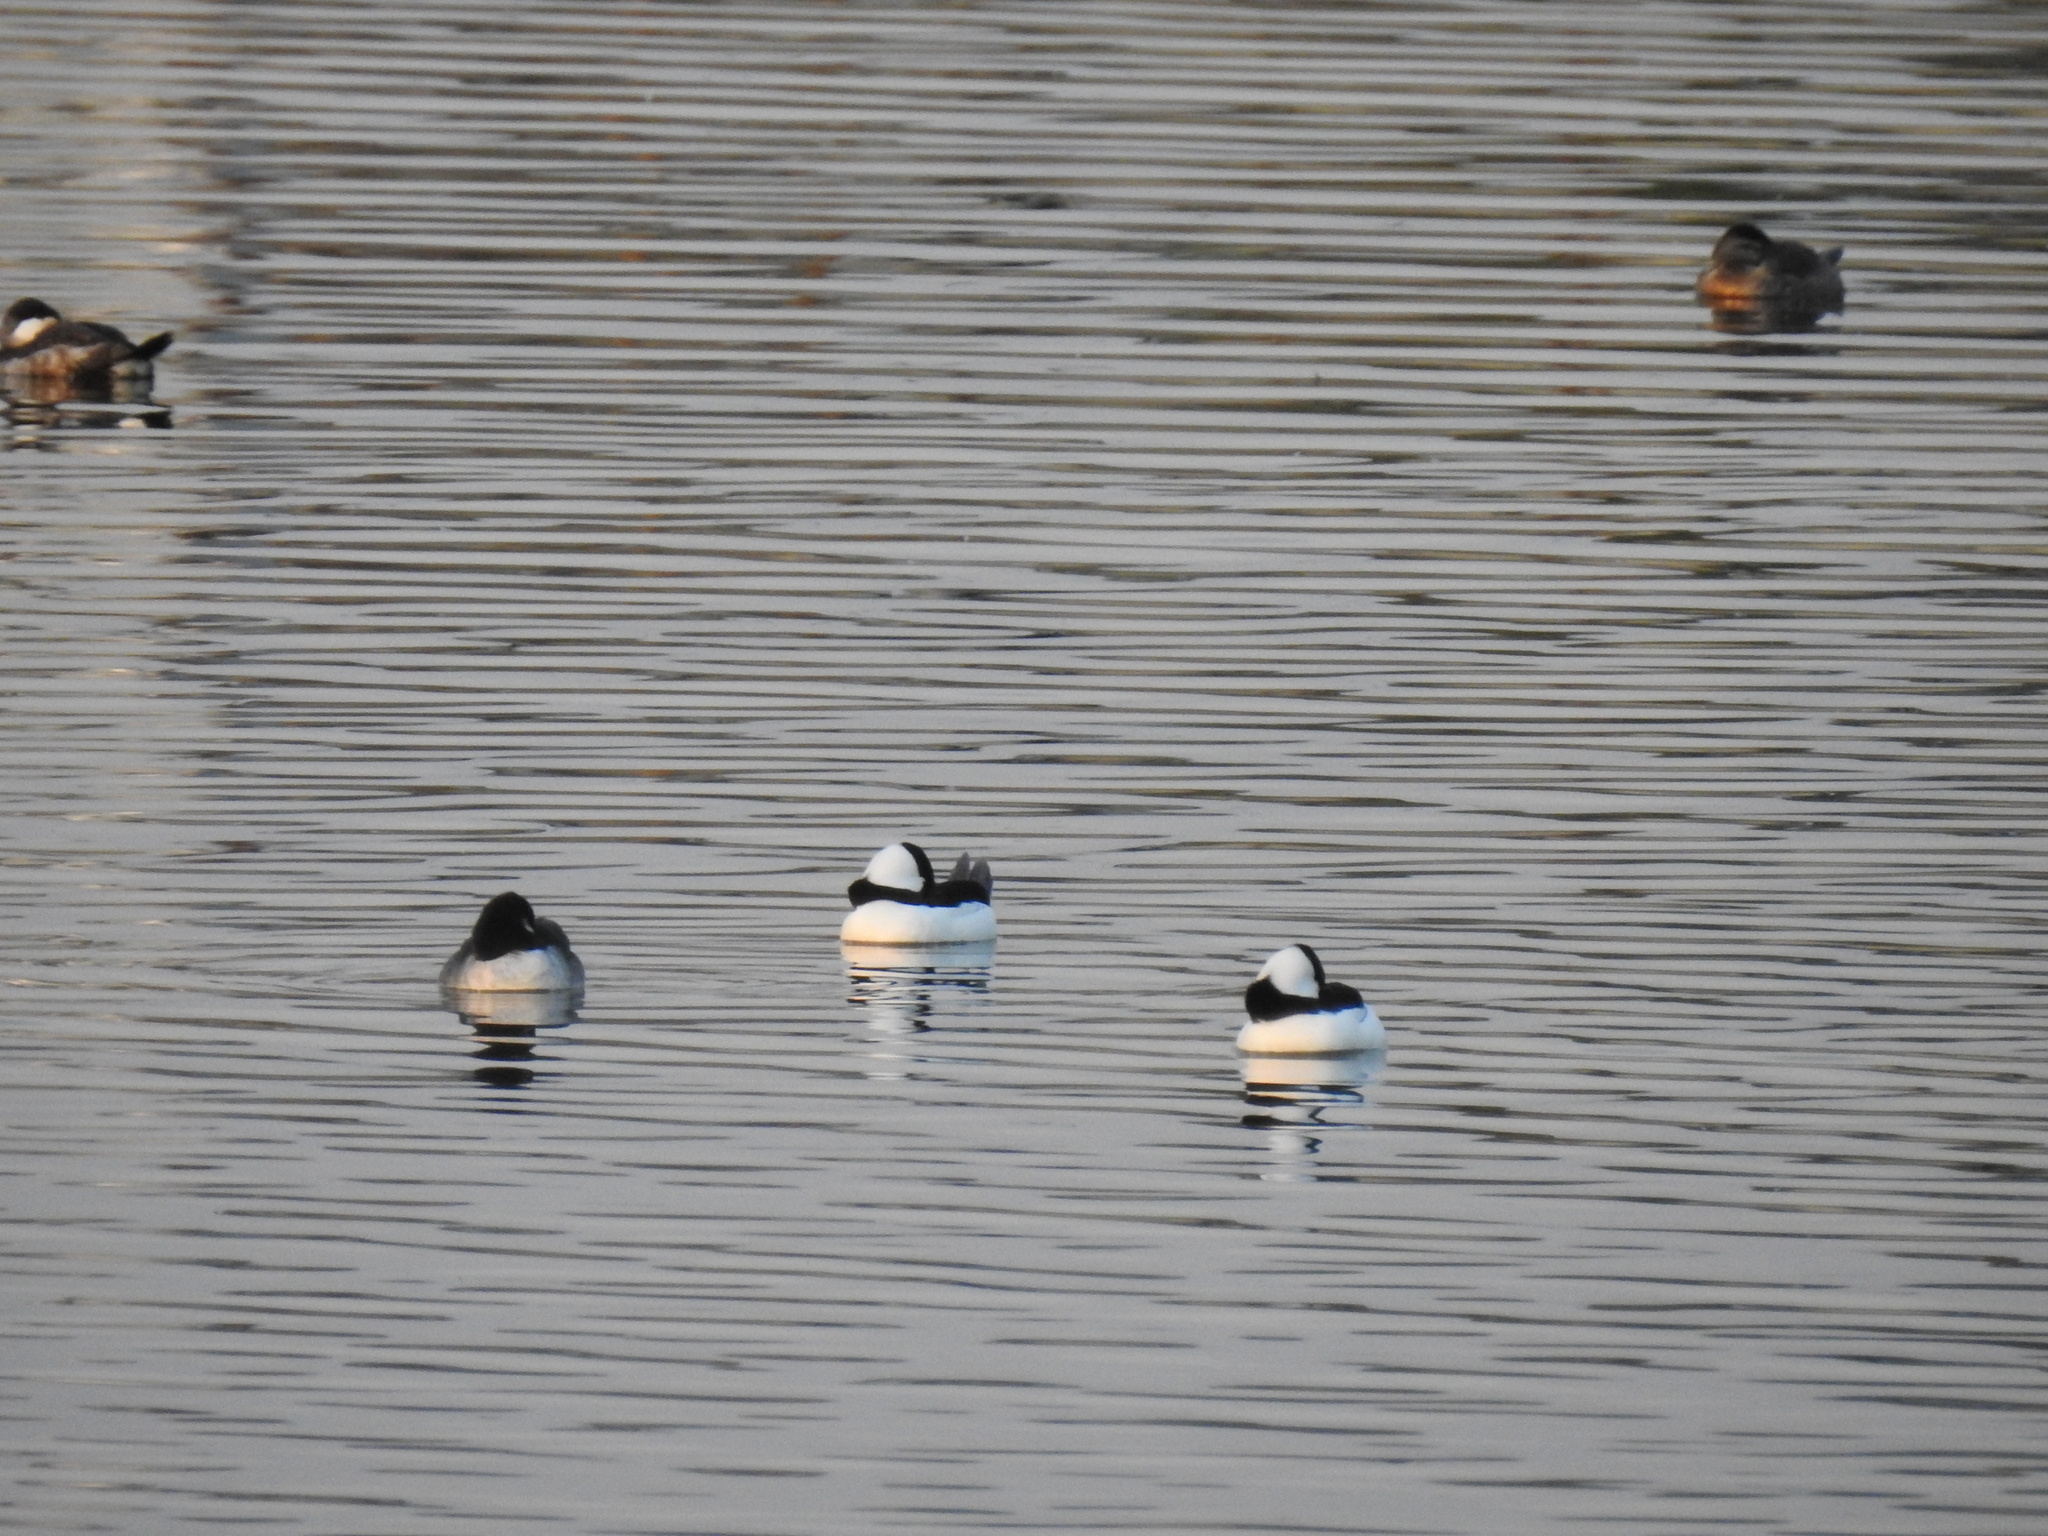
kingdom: Animalia
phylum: Chordata
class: Aves
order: Anseriformes
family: Anatidae
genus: Bucephala
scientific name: Bucephala albeola
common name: Bufflehead
